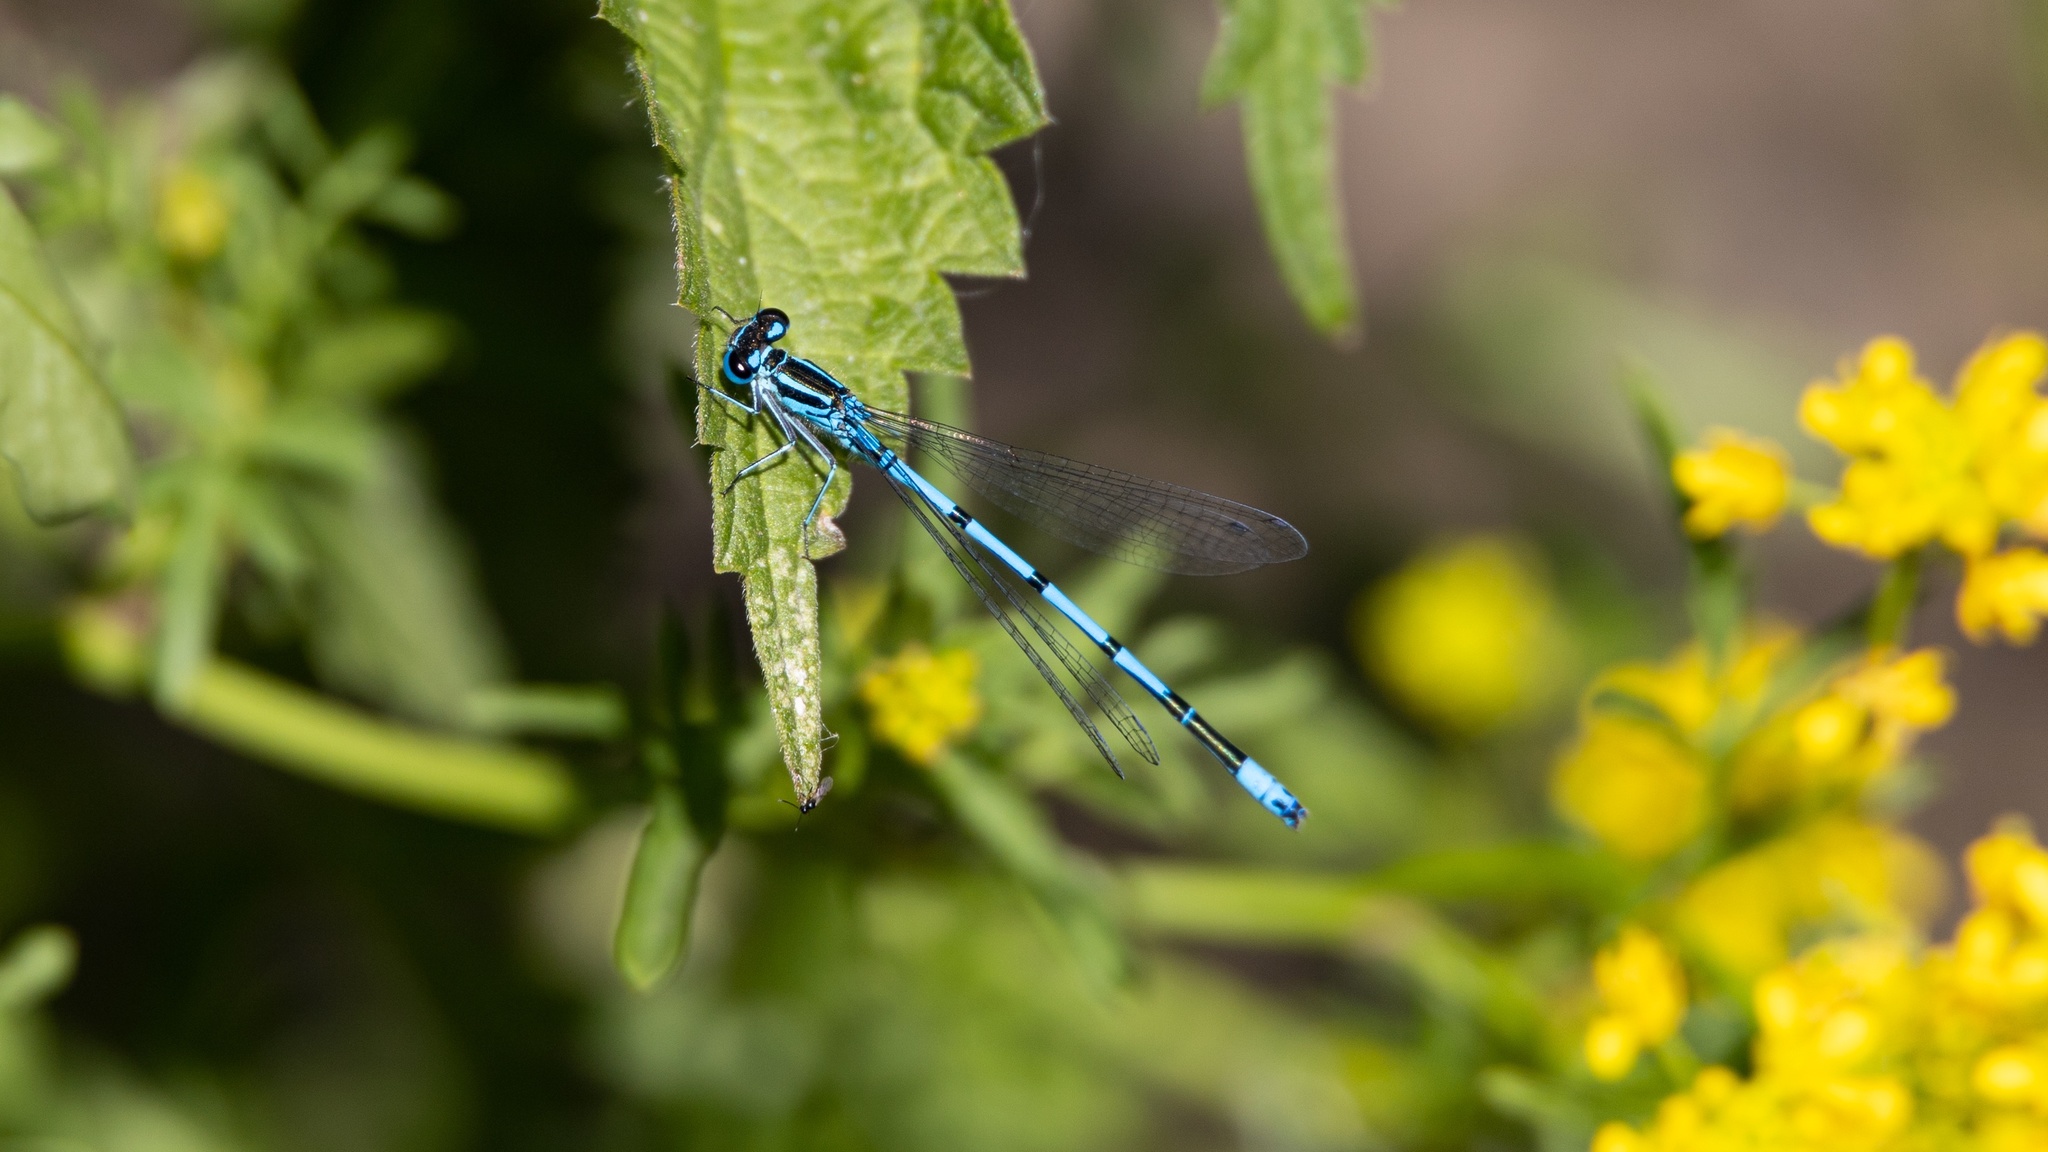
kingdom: Animalia
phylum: Arthropoda
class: Insecta
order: Odonata
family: Coenagrionidae
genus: Coenagrion
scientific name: Coenagrion puella
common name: Azure damselfly
